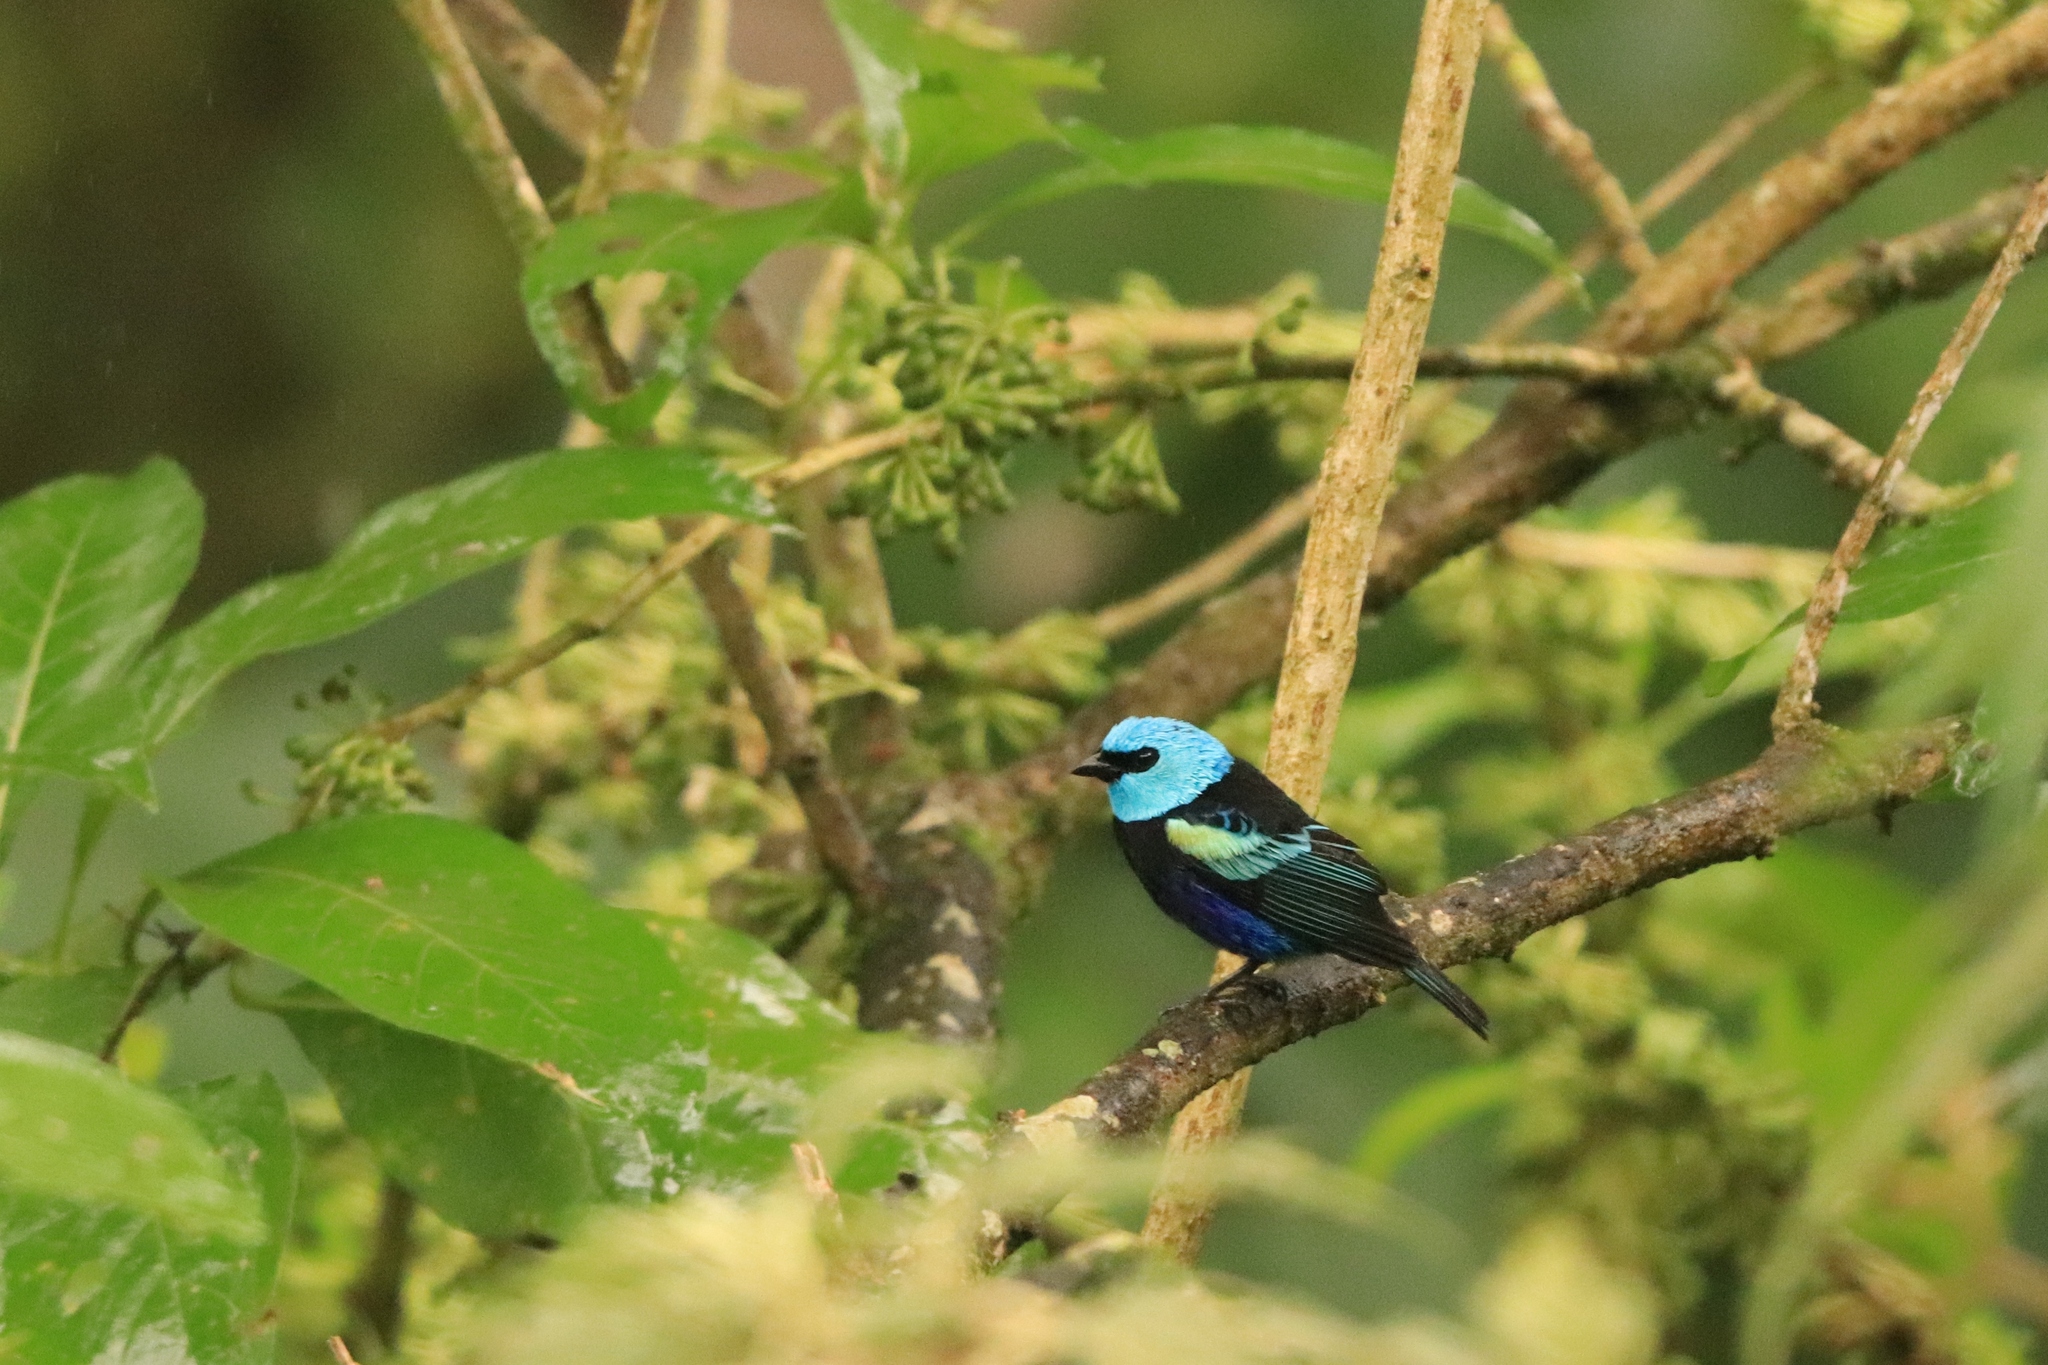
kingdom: Animalia
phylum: Chordata
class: Aves
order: Passeriformes
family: Thraupidae
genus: Stilpnia
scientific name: Stilpnia cyanicollis
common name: Blue-necked tanager
